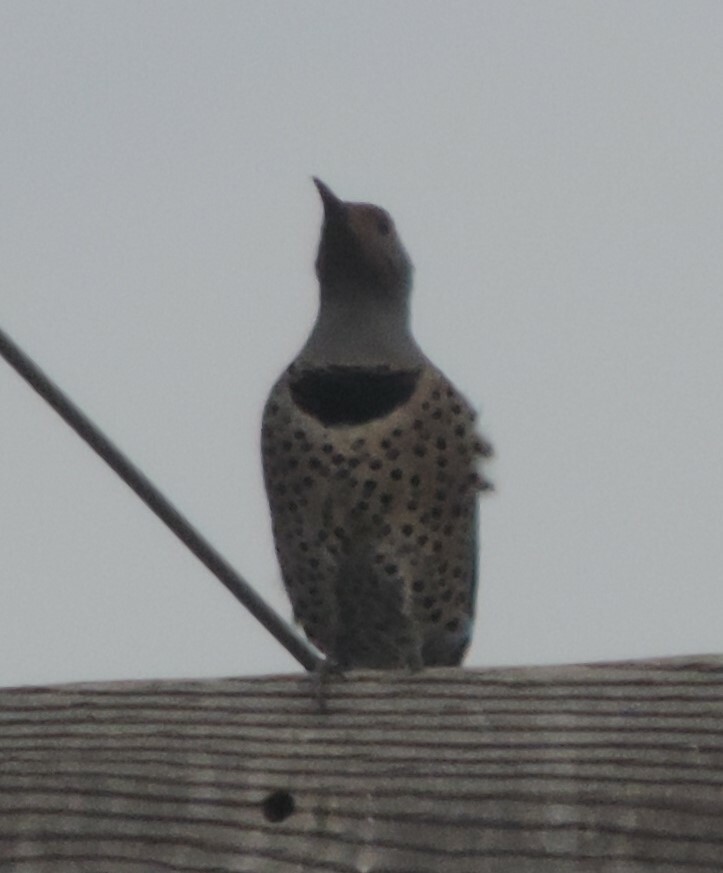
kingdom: Animalia
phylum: Chordata
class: Aves
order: Piciformes
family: Picidae
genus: Colaptes
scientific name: Colaptes auratus
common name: Northern flicker
